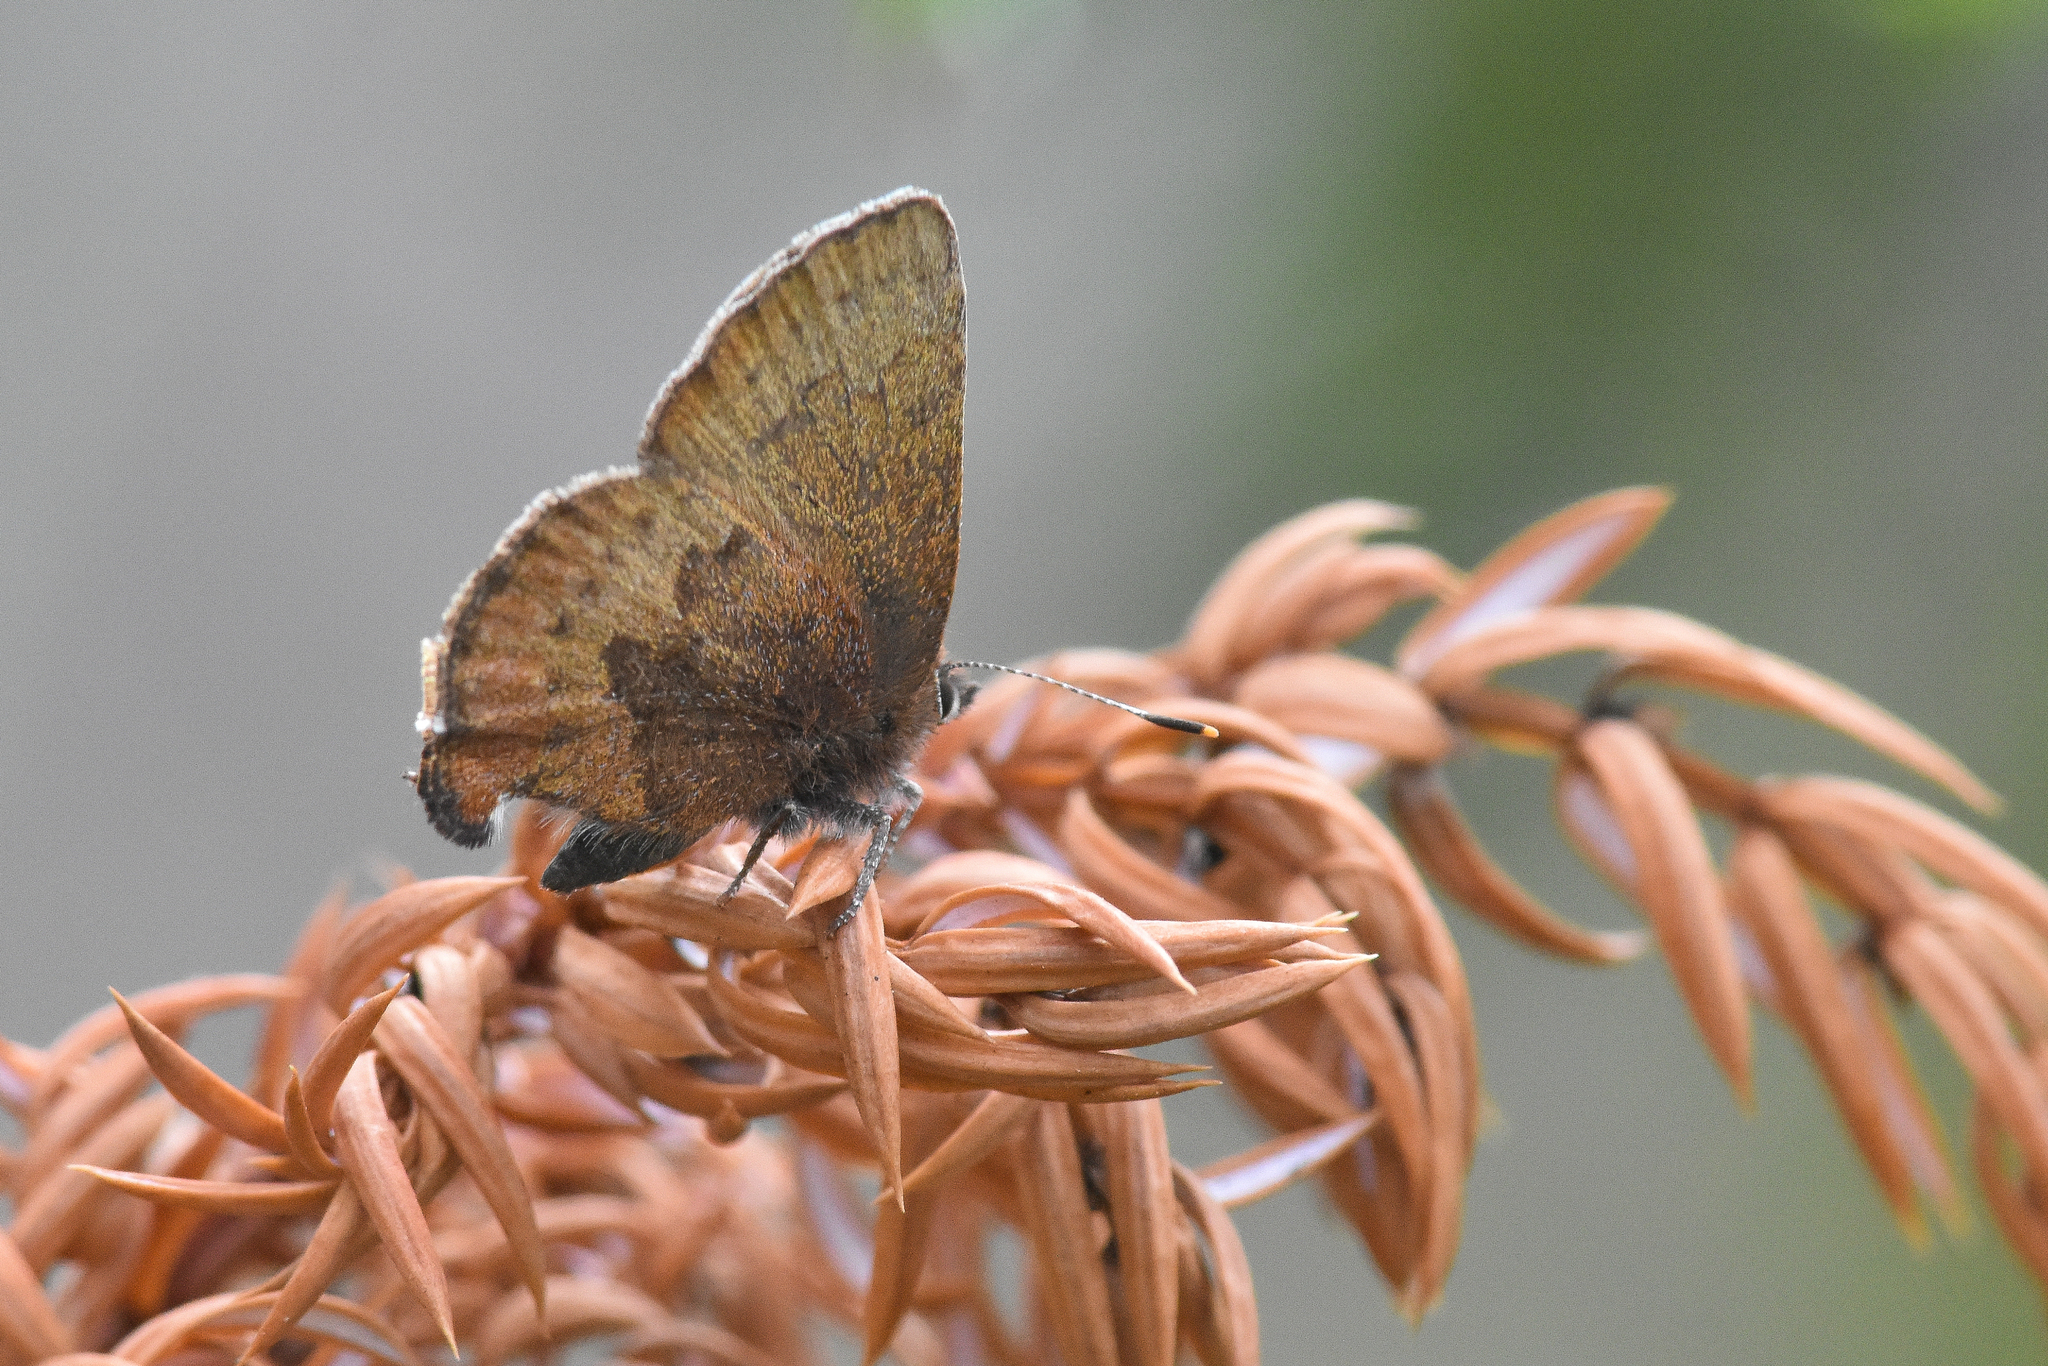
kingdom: Animalia
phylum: Arthropoda
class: Insecta
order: Lepidoptera
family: Lycaenidae
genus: Incisalia
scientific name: Incisalia irioides
